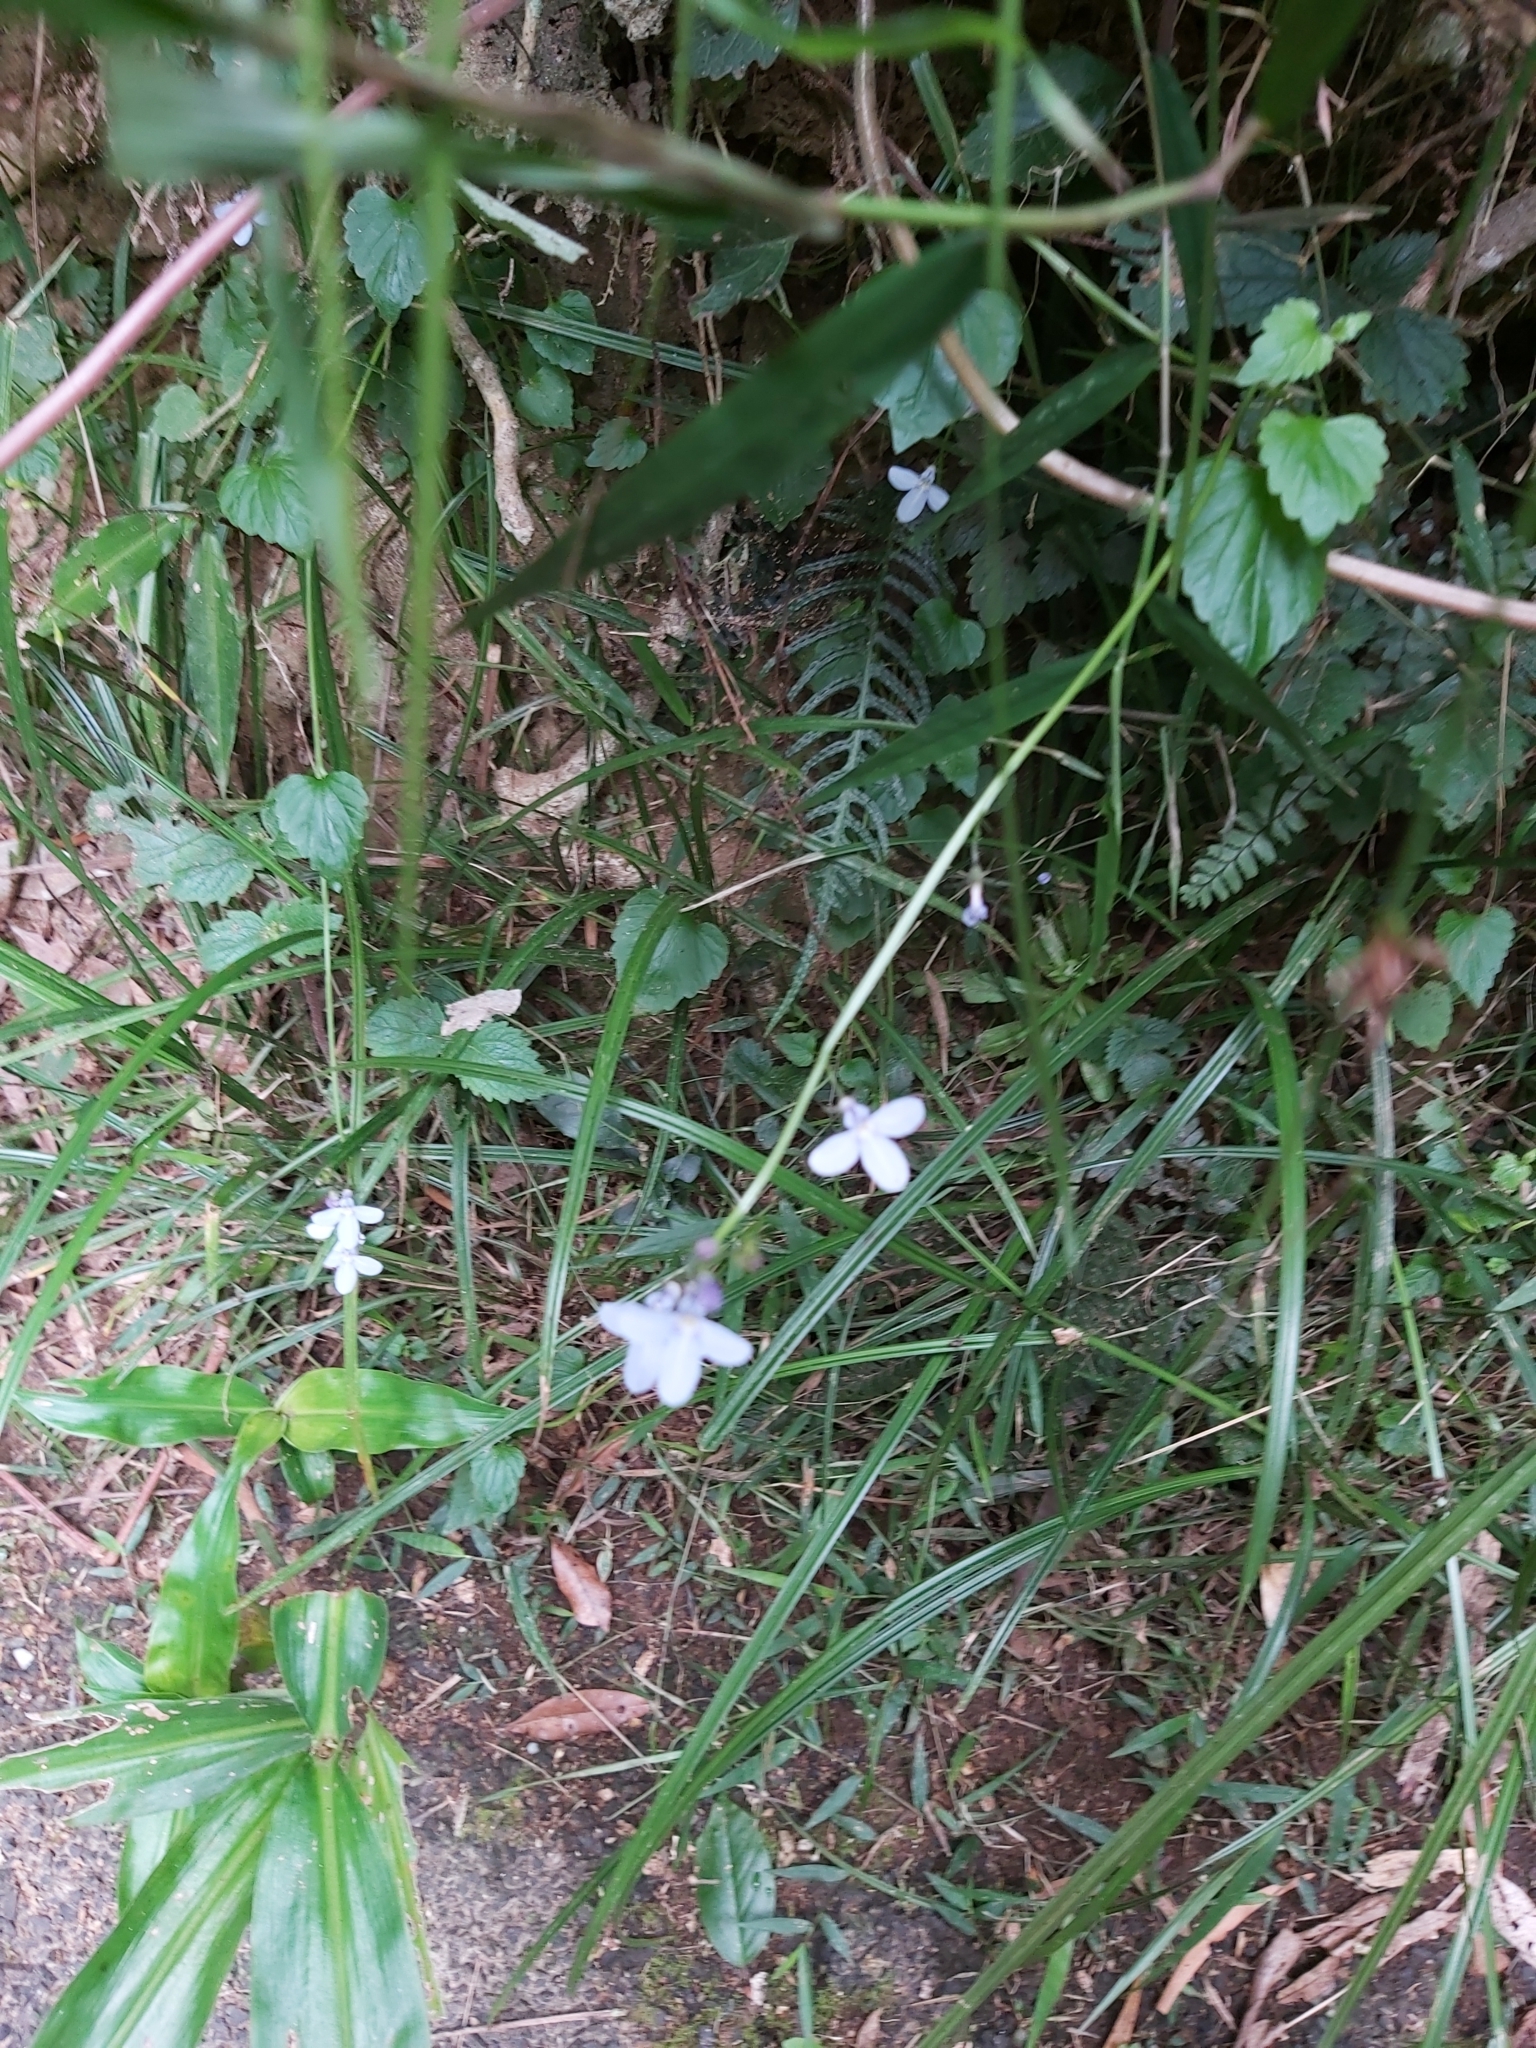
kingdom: Plantae
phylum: Tracheophyta
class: Magnoliopsida
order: Asterales
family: Campanulaceae
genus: Lobelia
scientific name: Lobelia trigonocaulis
